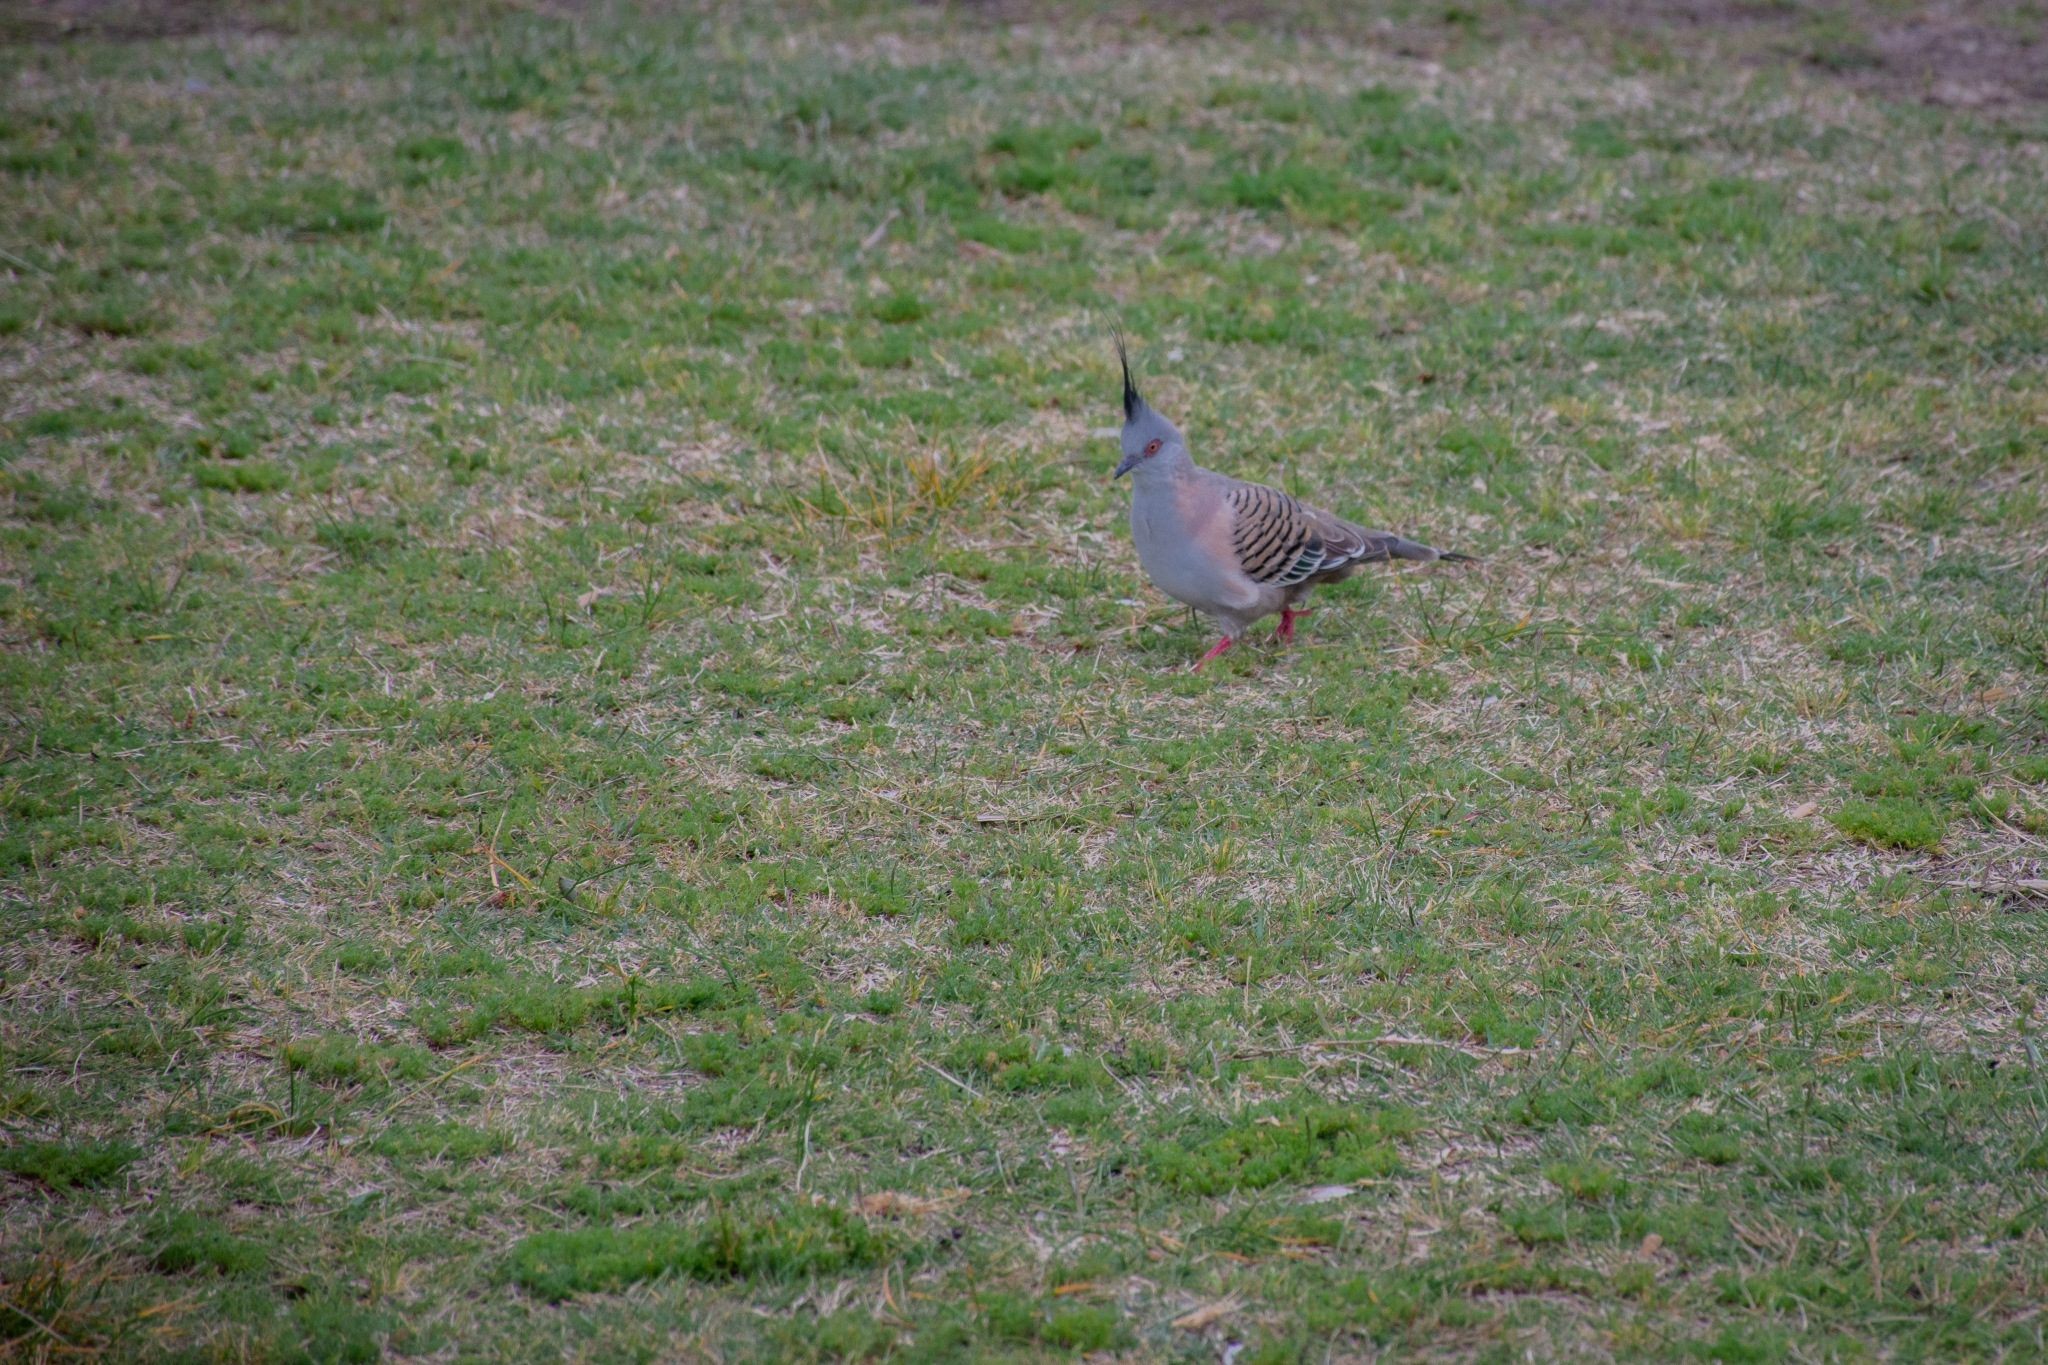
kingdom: Animalia
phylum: Chordata
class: Aves
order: Columbiformes
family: Columbidae
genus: Ocyphaps
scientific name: Ocyphaps lophotes
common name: Crested pigeon
